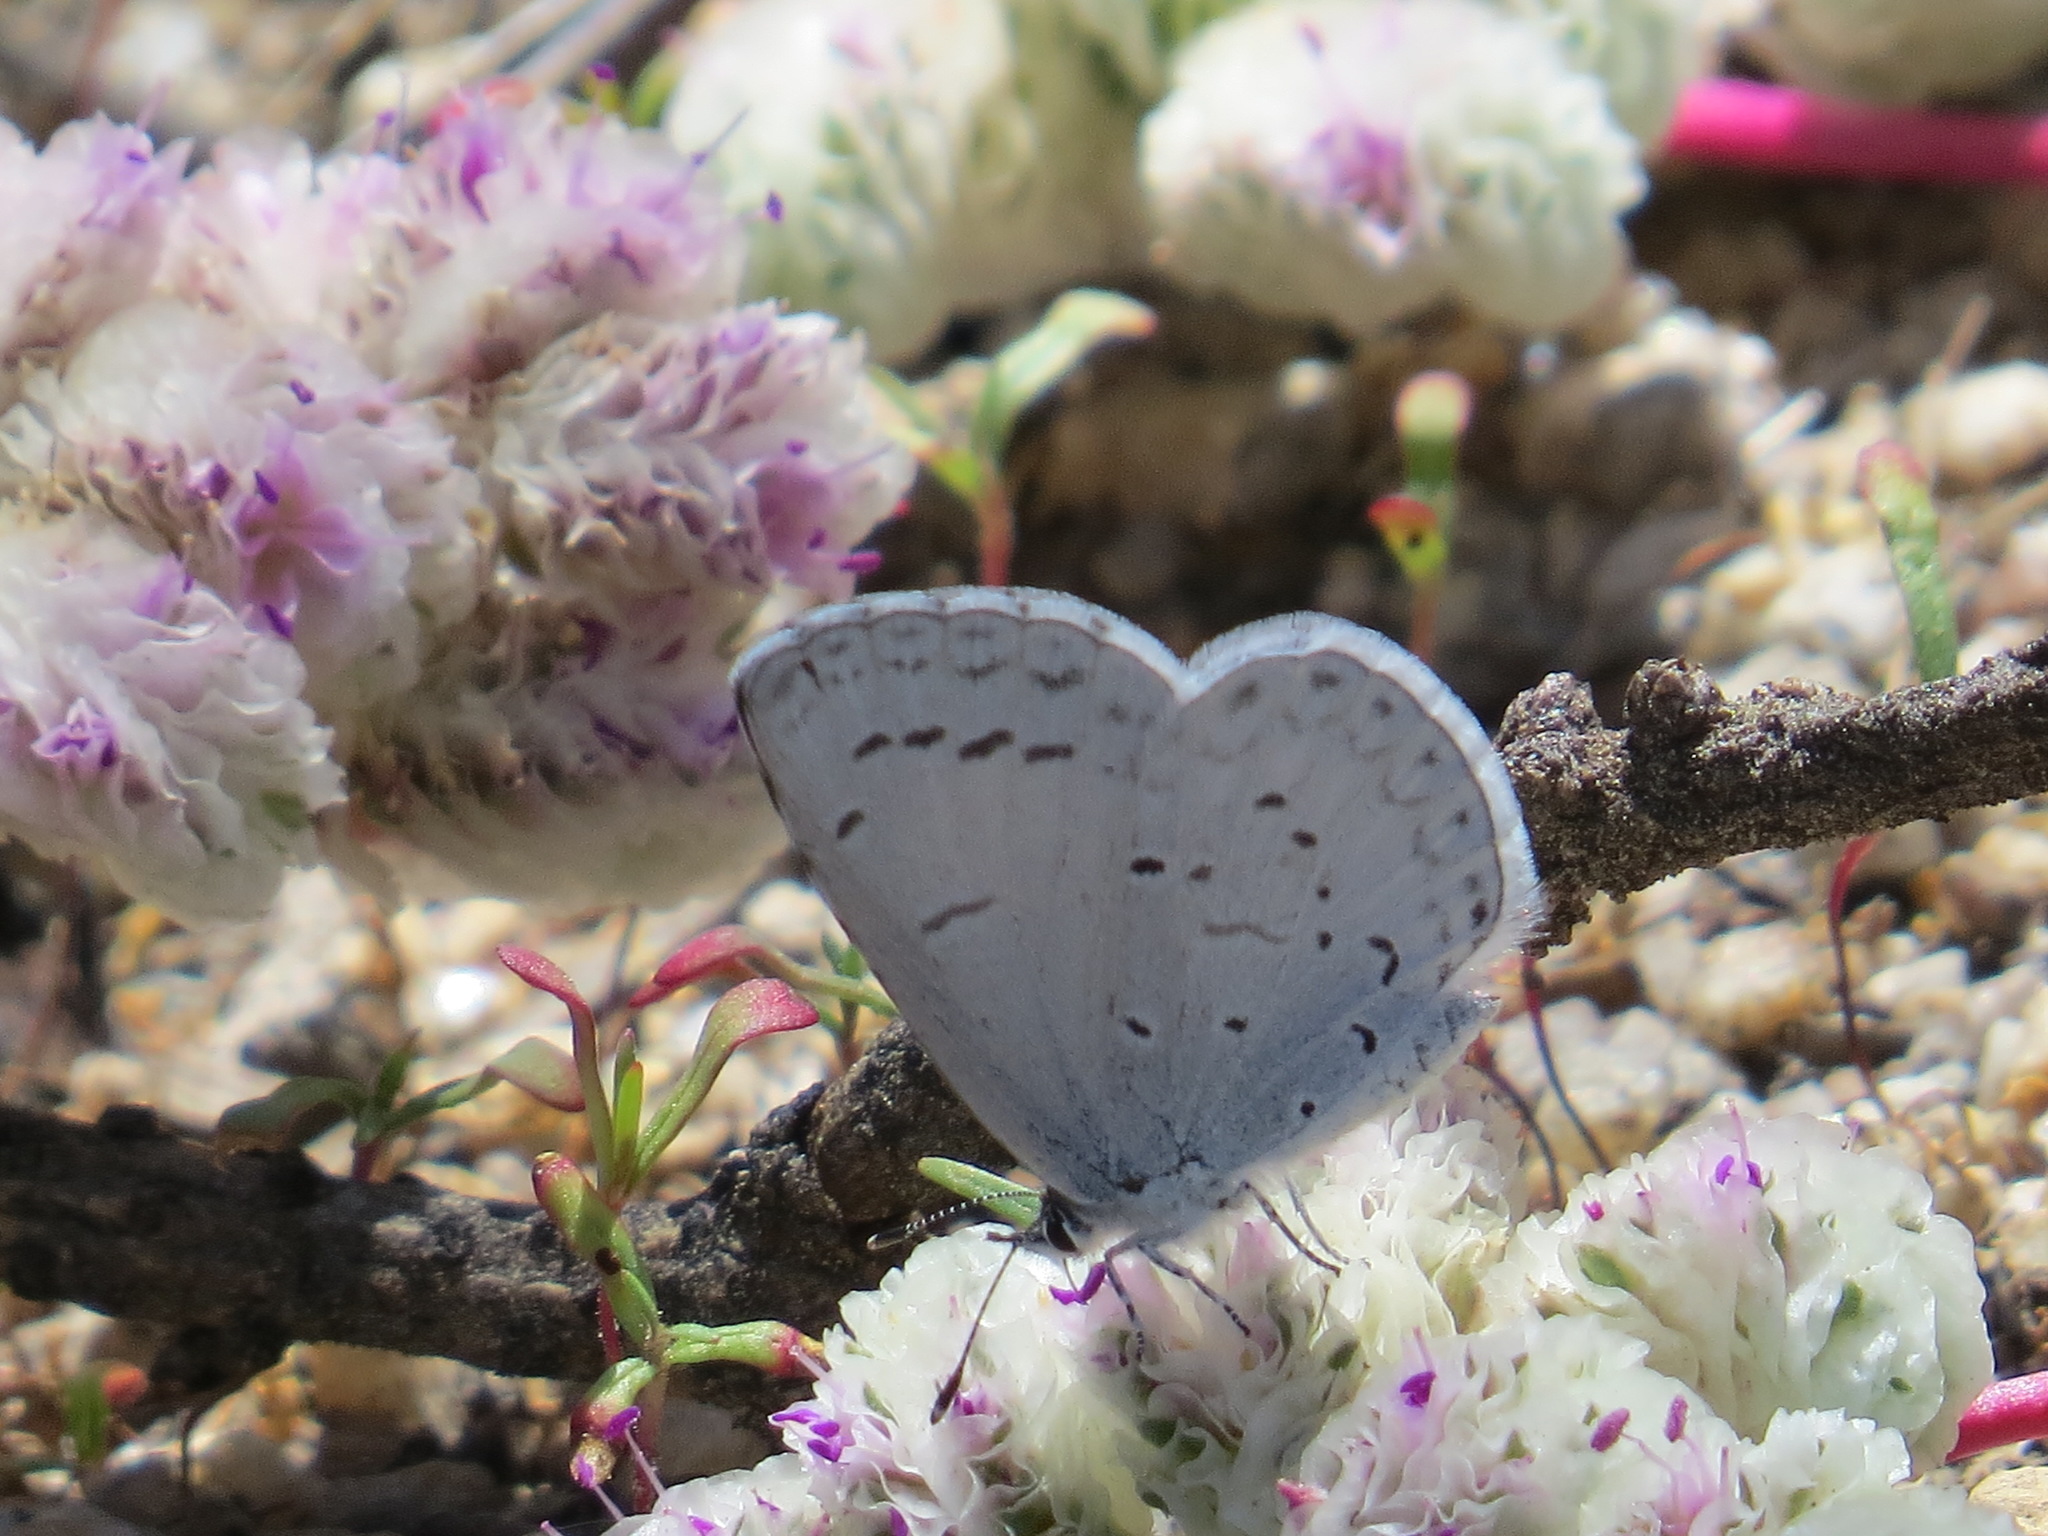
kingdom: Animalia
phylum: Arthropoda
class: Insecta
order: Lepidoptera
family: Lycaenidae
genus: Celastrina
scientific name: Celastrina ladon
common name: Spring azure
